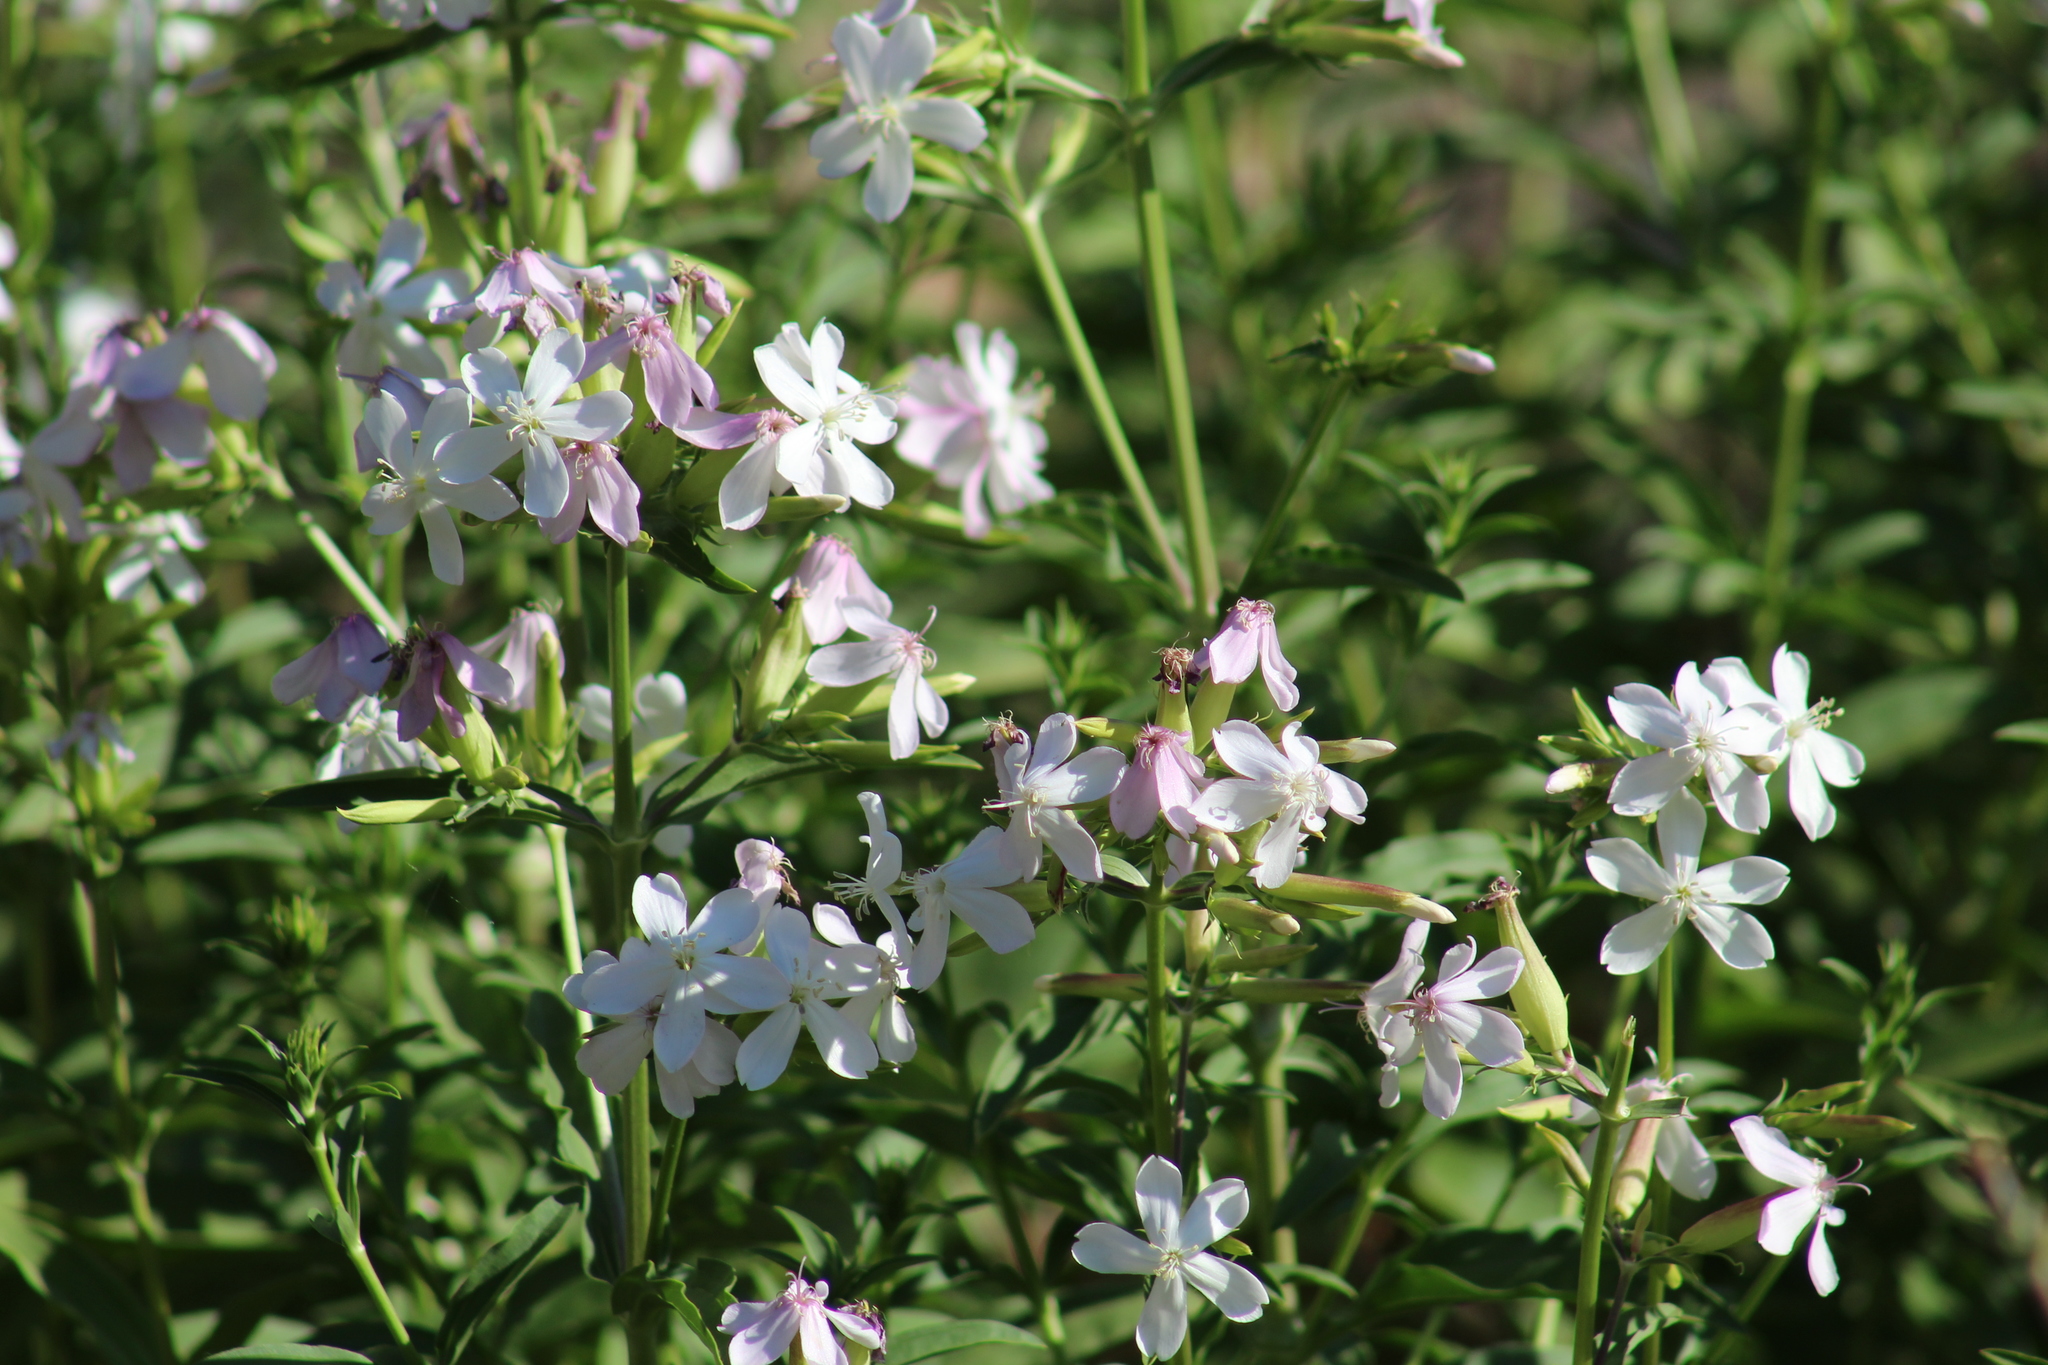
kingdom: Plantae
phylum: Tracheophyta
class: Magnoliopsida
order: Caryophyllales
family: Caryophyllaceae
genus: Saponaria
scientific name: Saponaria officinalis
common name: Soapwort
